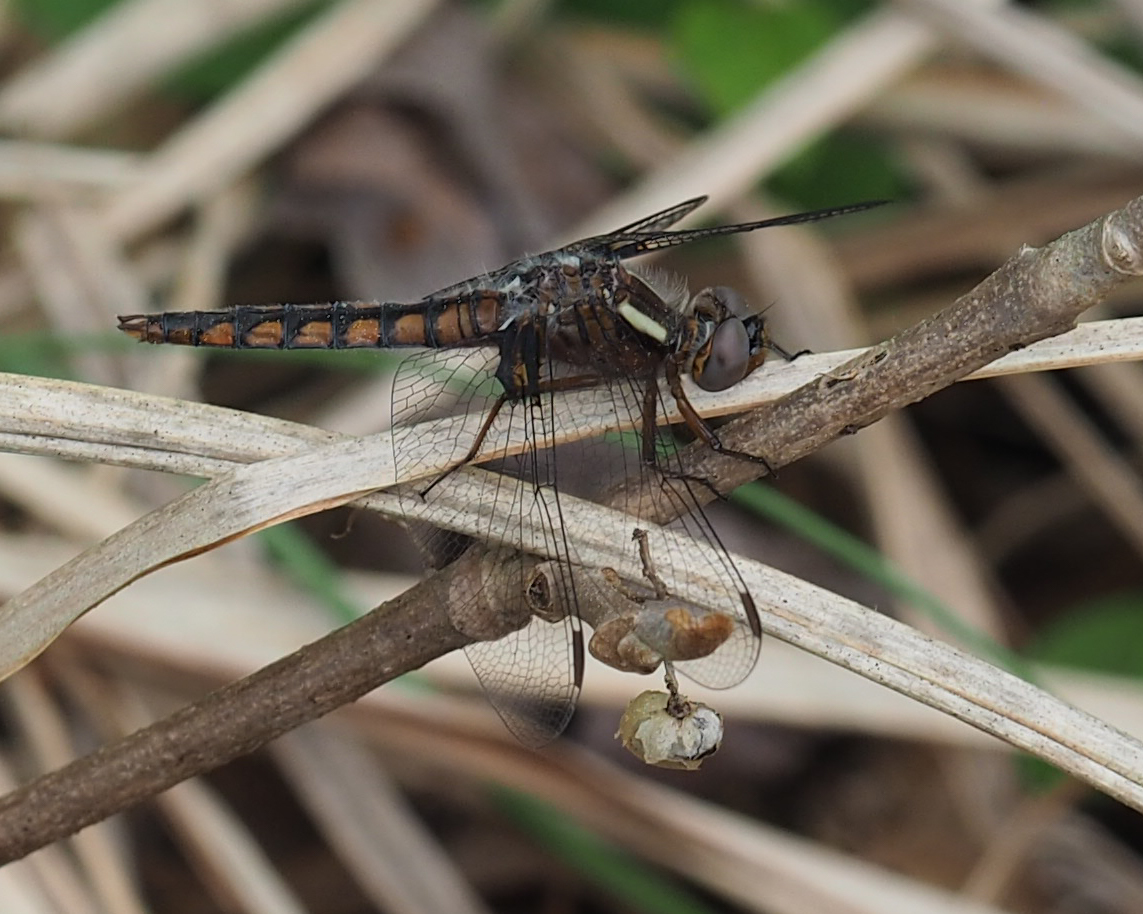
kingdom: Animalia
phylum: Arthropoda
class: Insecta
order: Odonata
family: Libellulidae
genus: Ladona
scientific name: Ladona deplanata
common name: Blue corporal
